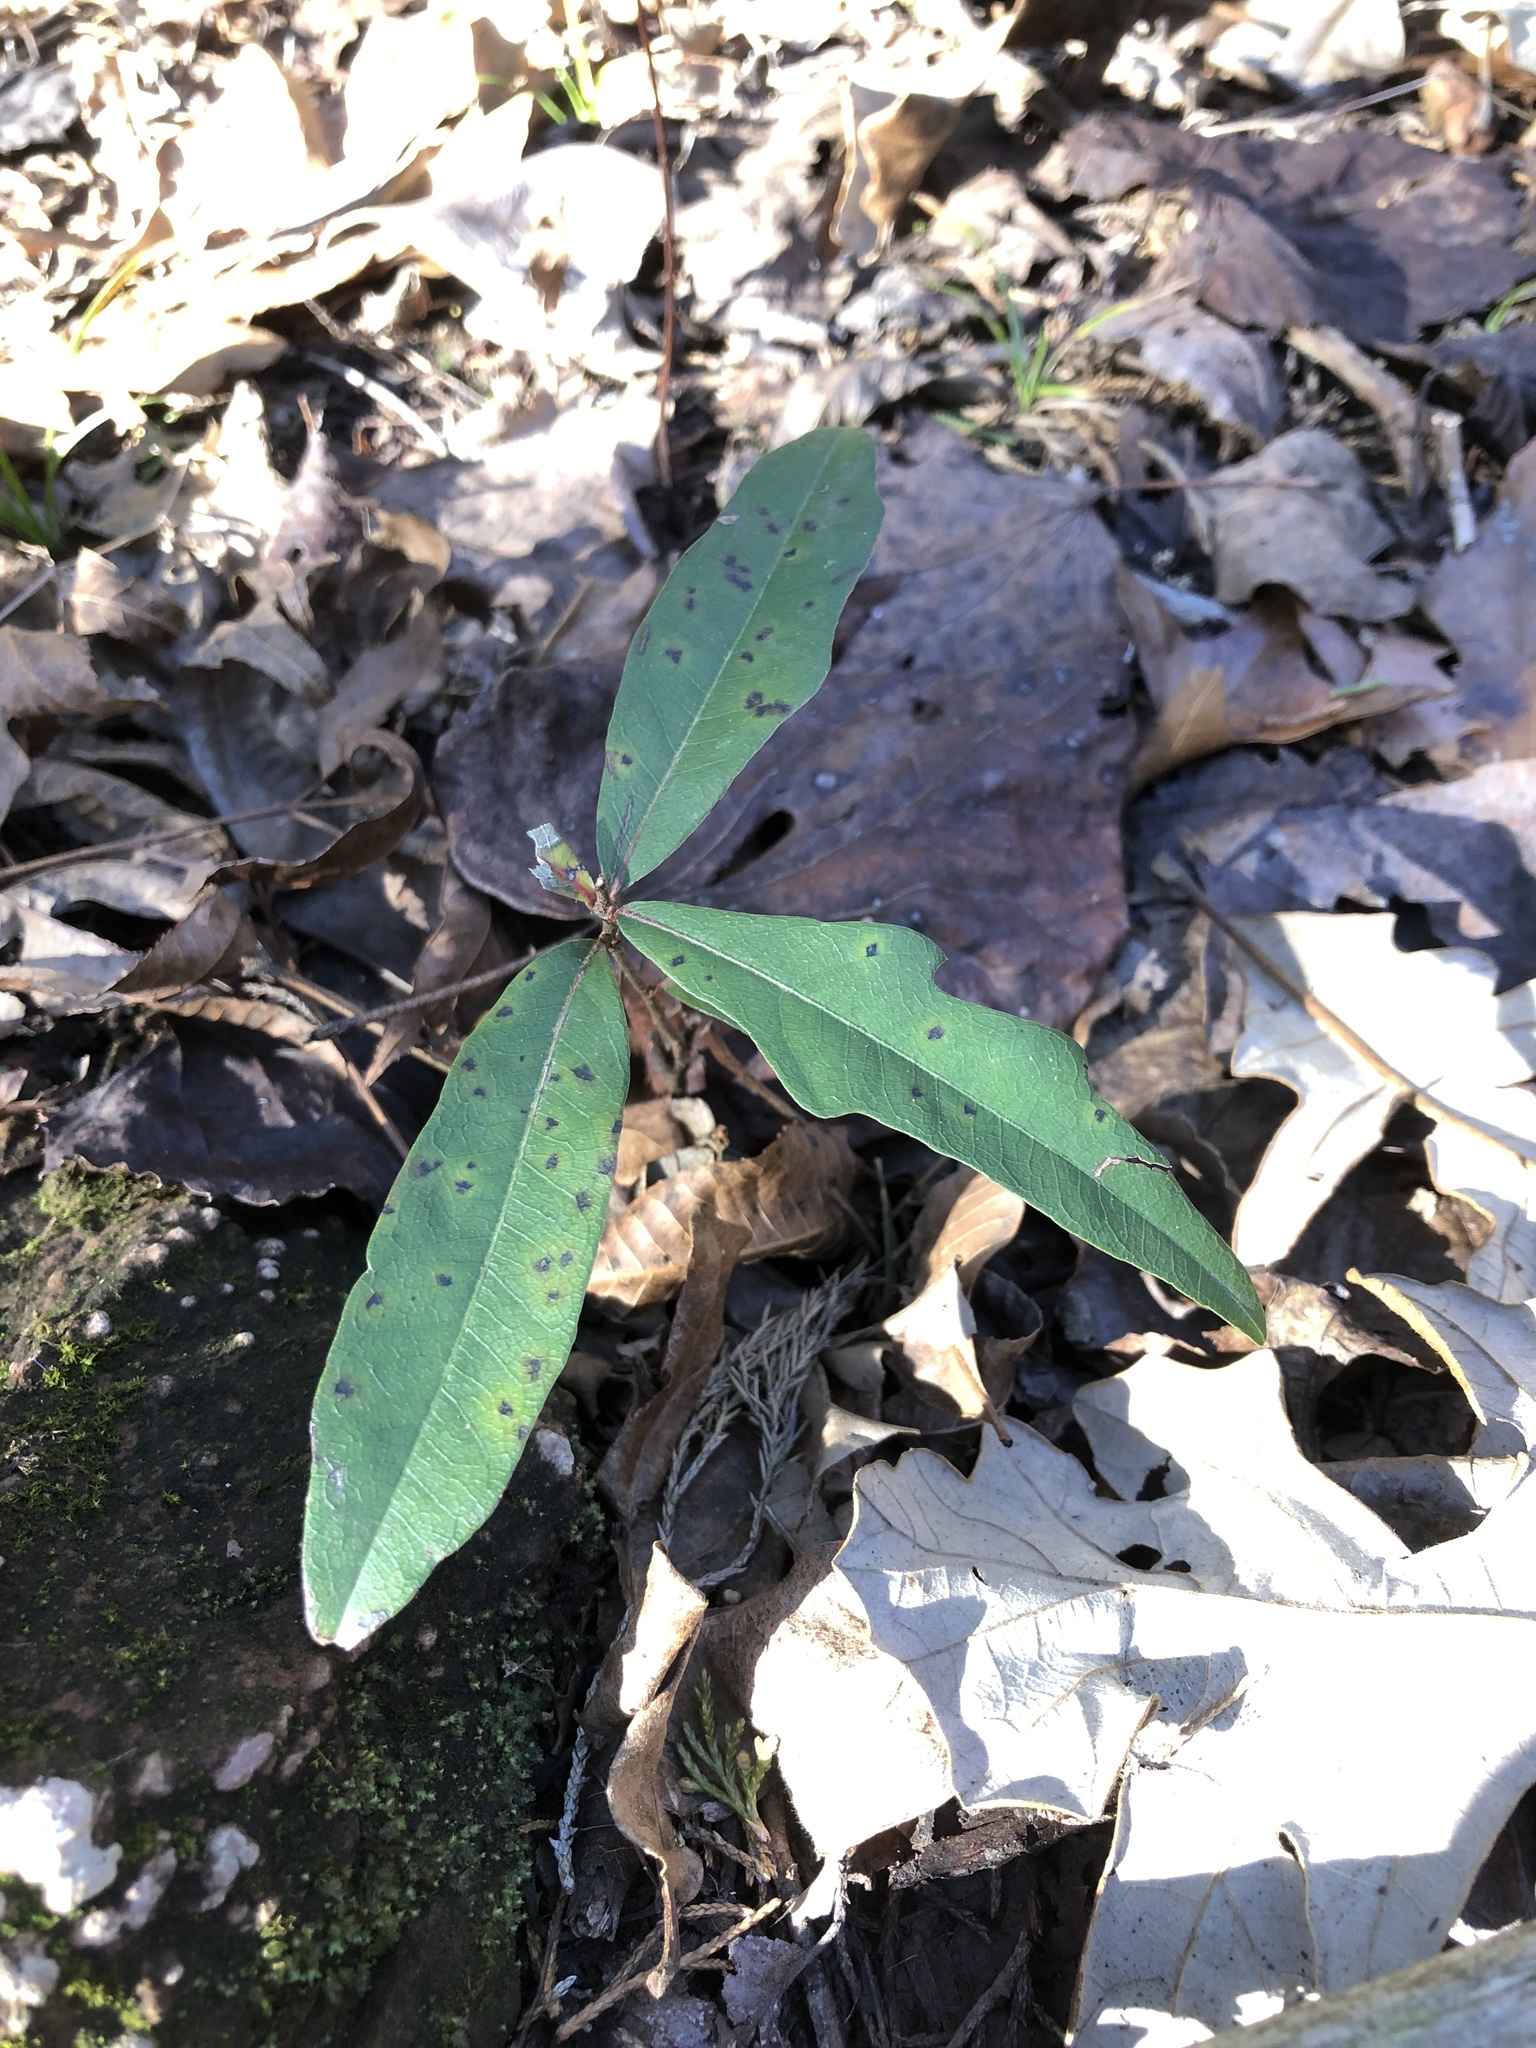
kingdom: Plantae
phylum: Tracheophyta
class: Magnoliopsida
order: Fagales
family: Fagaceae
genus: Quercus
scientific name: Quercus nigra
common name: Water oak
